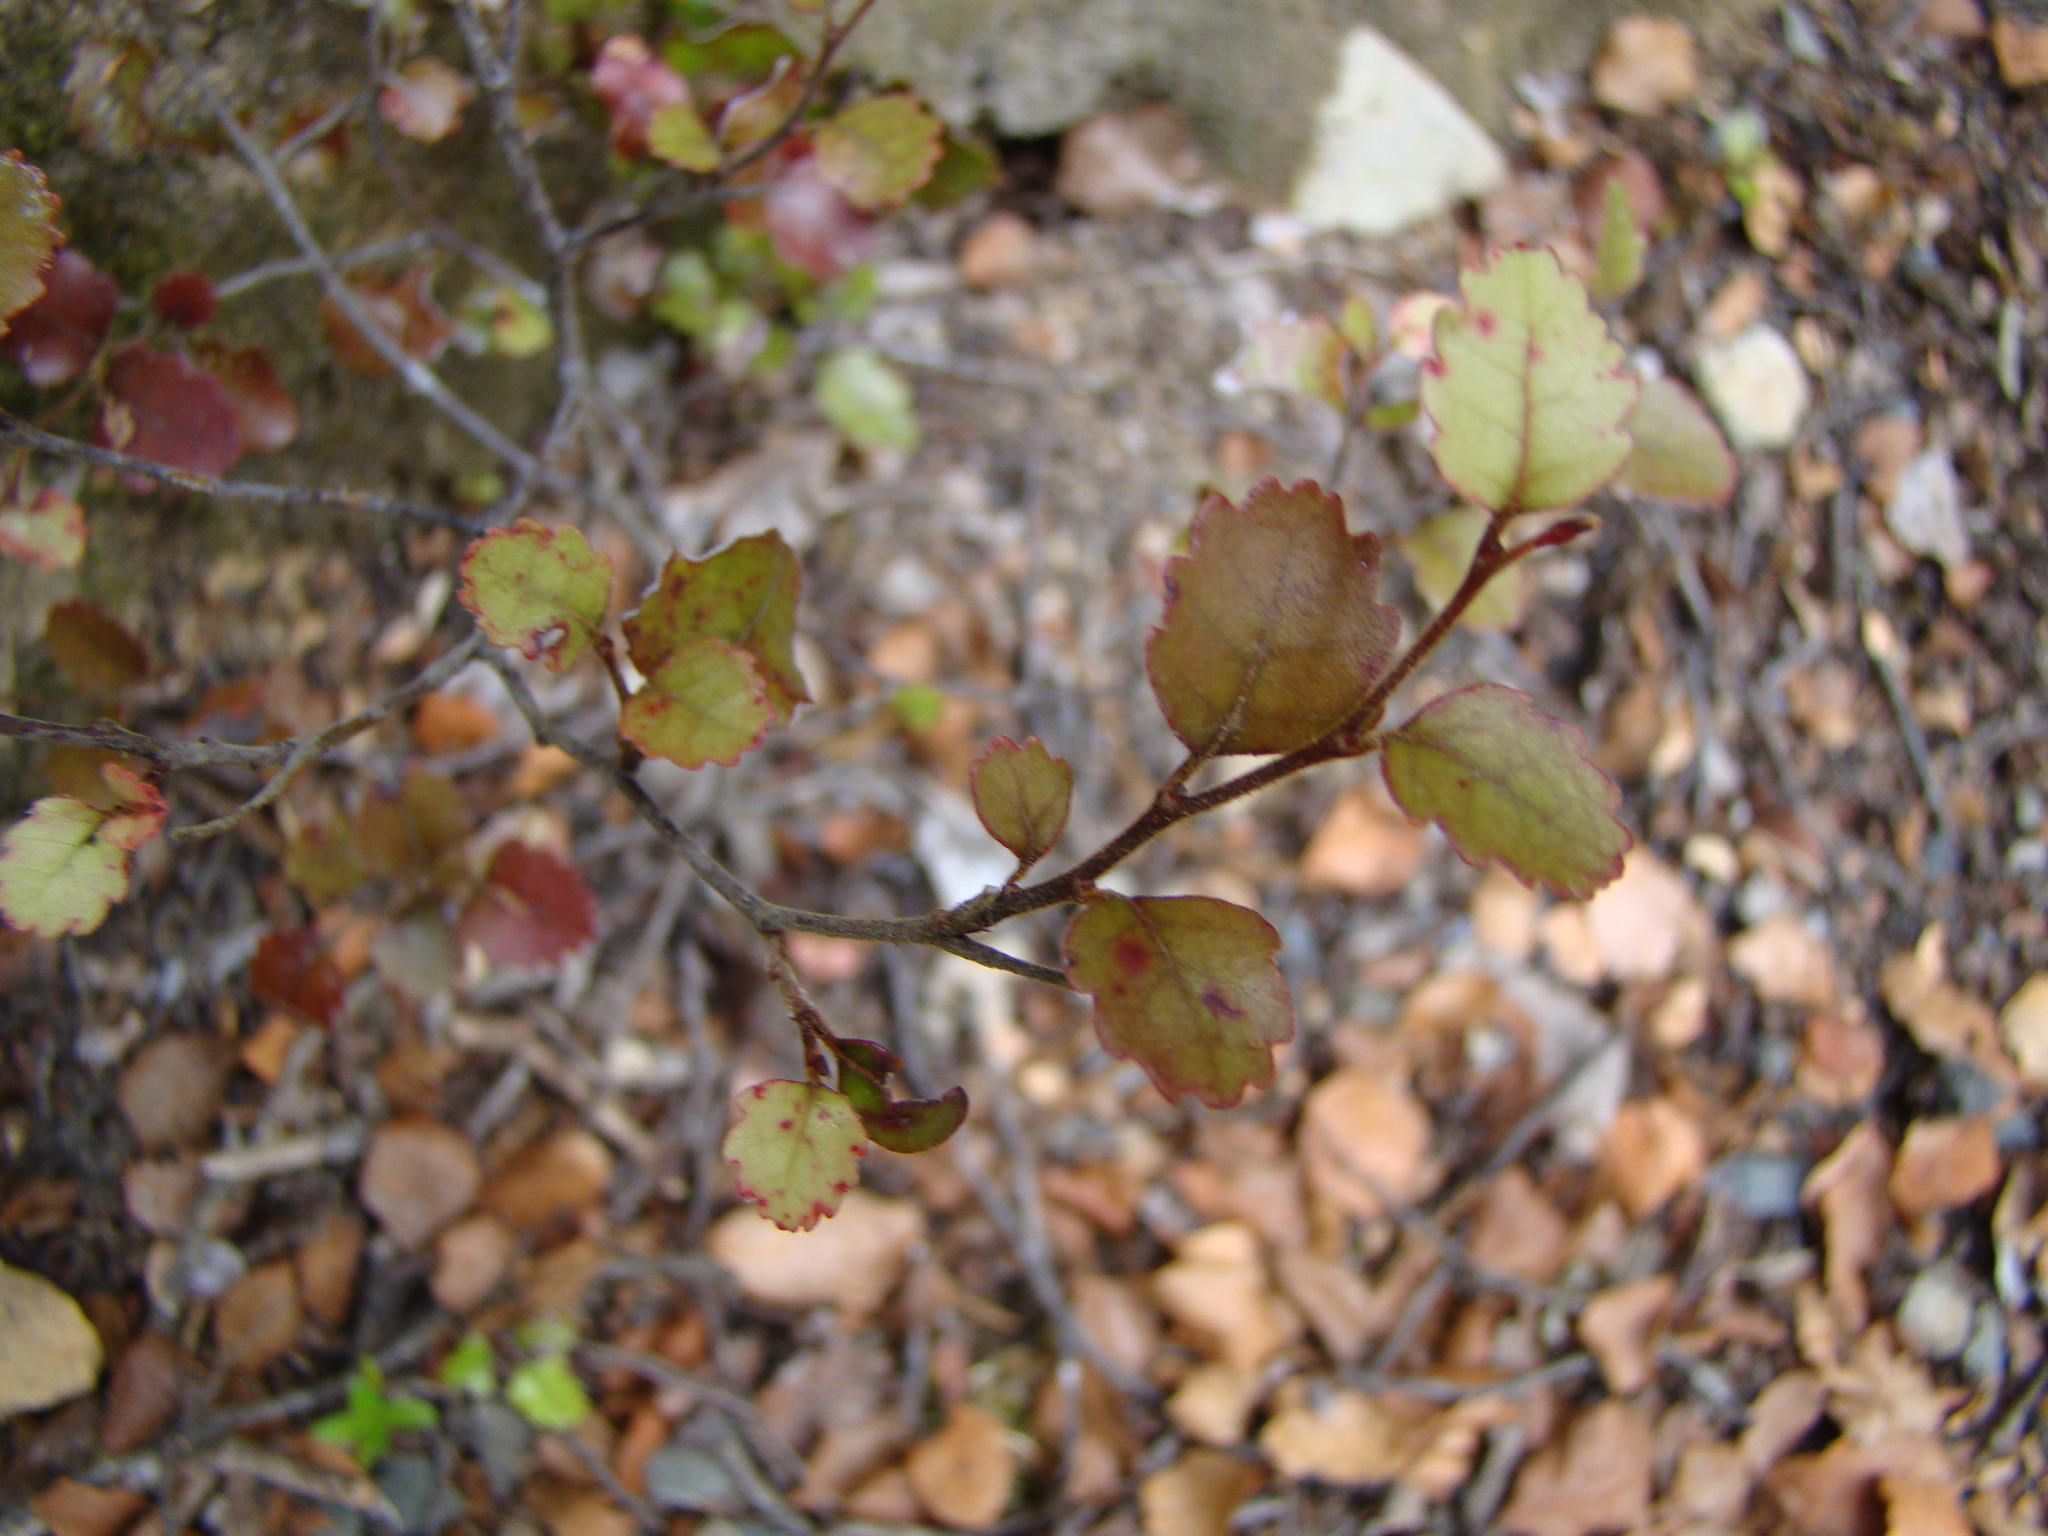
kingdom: Plantae
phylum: Tracheophyta
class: Magnoliopsida
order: Fagales
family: Nothofagaceae
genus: Nothofagus
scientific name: Nothofagus fusca
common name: Red beech
